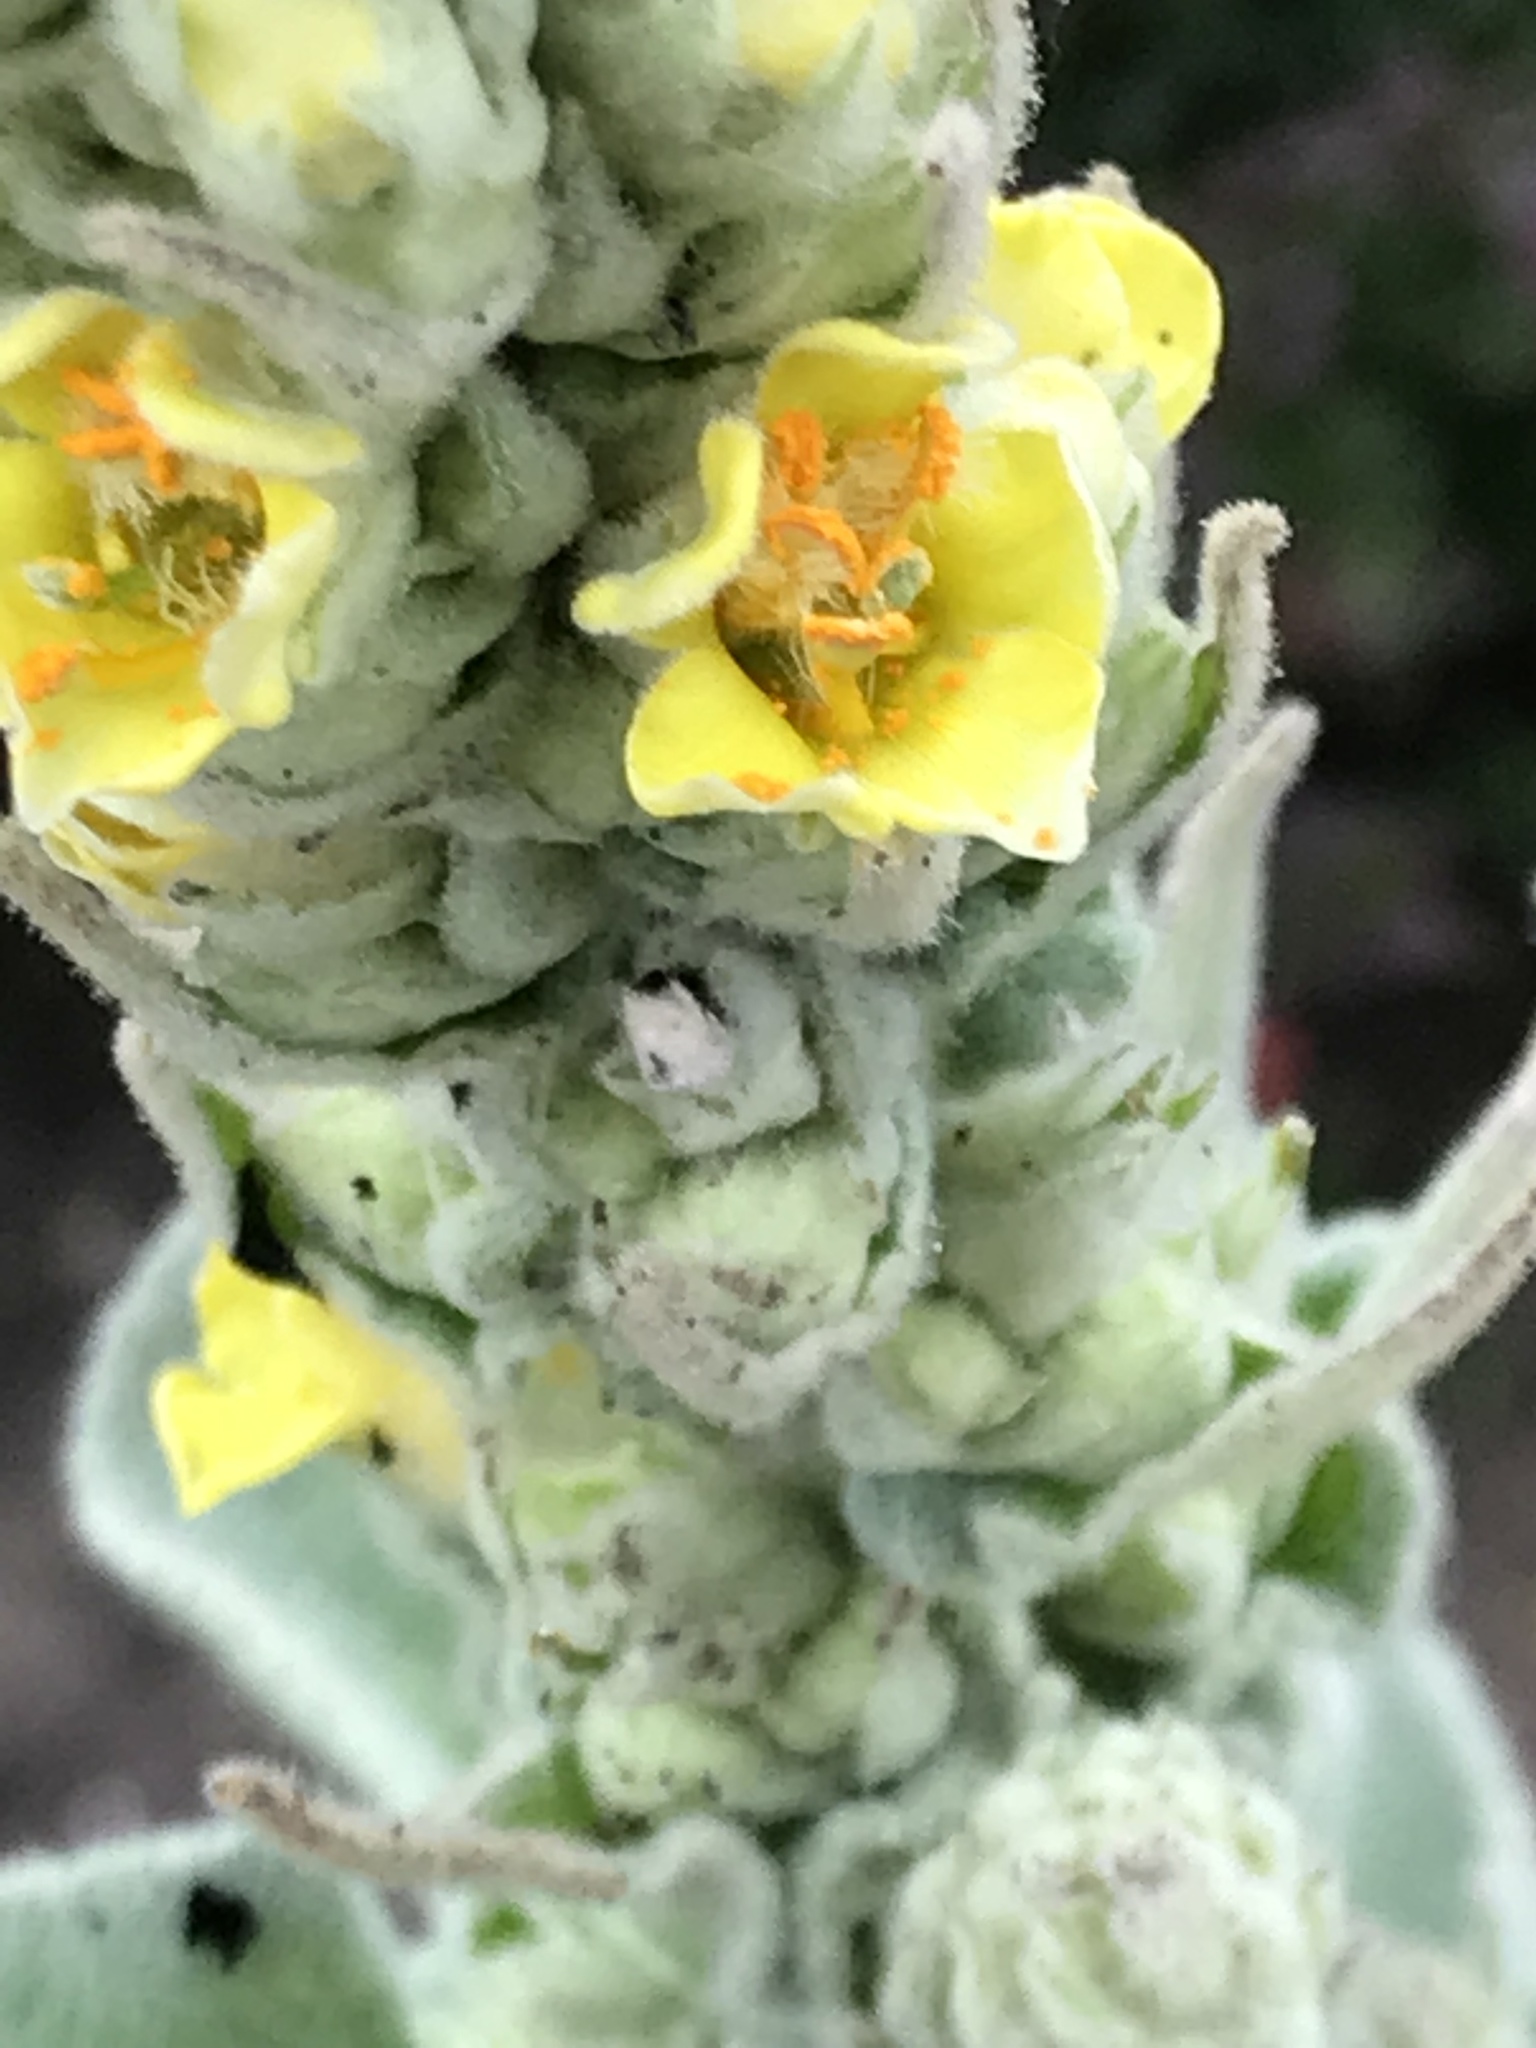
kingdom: Plantae
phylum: Tracheophyta
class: Magnoliopsida
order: Lamiales
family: Scrophulariaceae
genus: Verbascum
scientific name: Verbascum thapsus
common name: Common mullein
